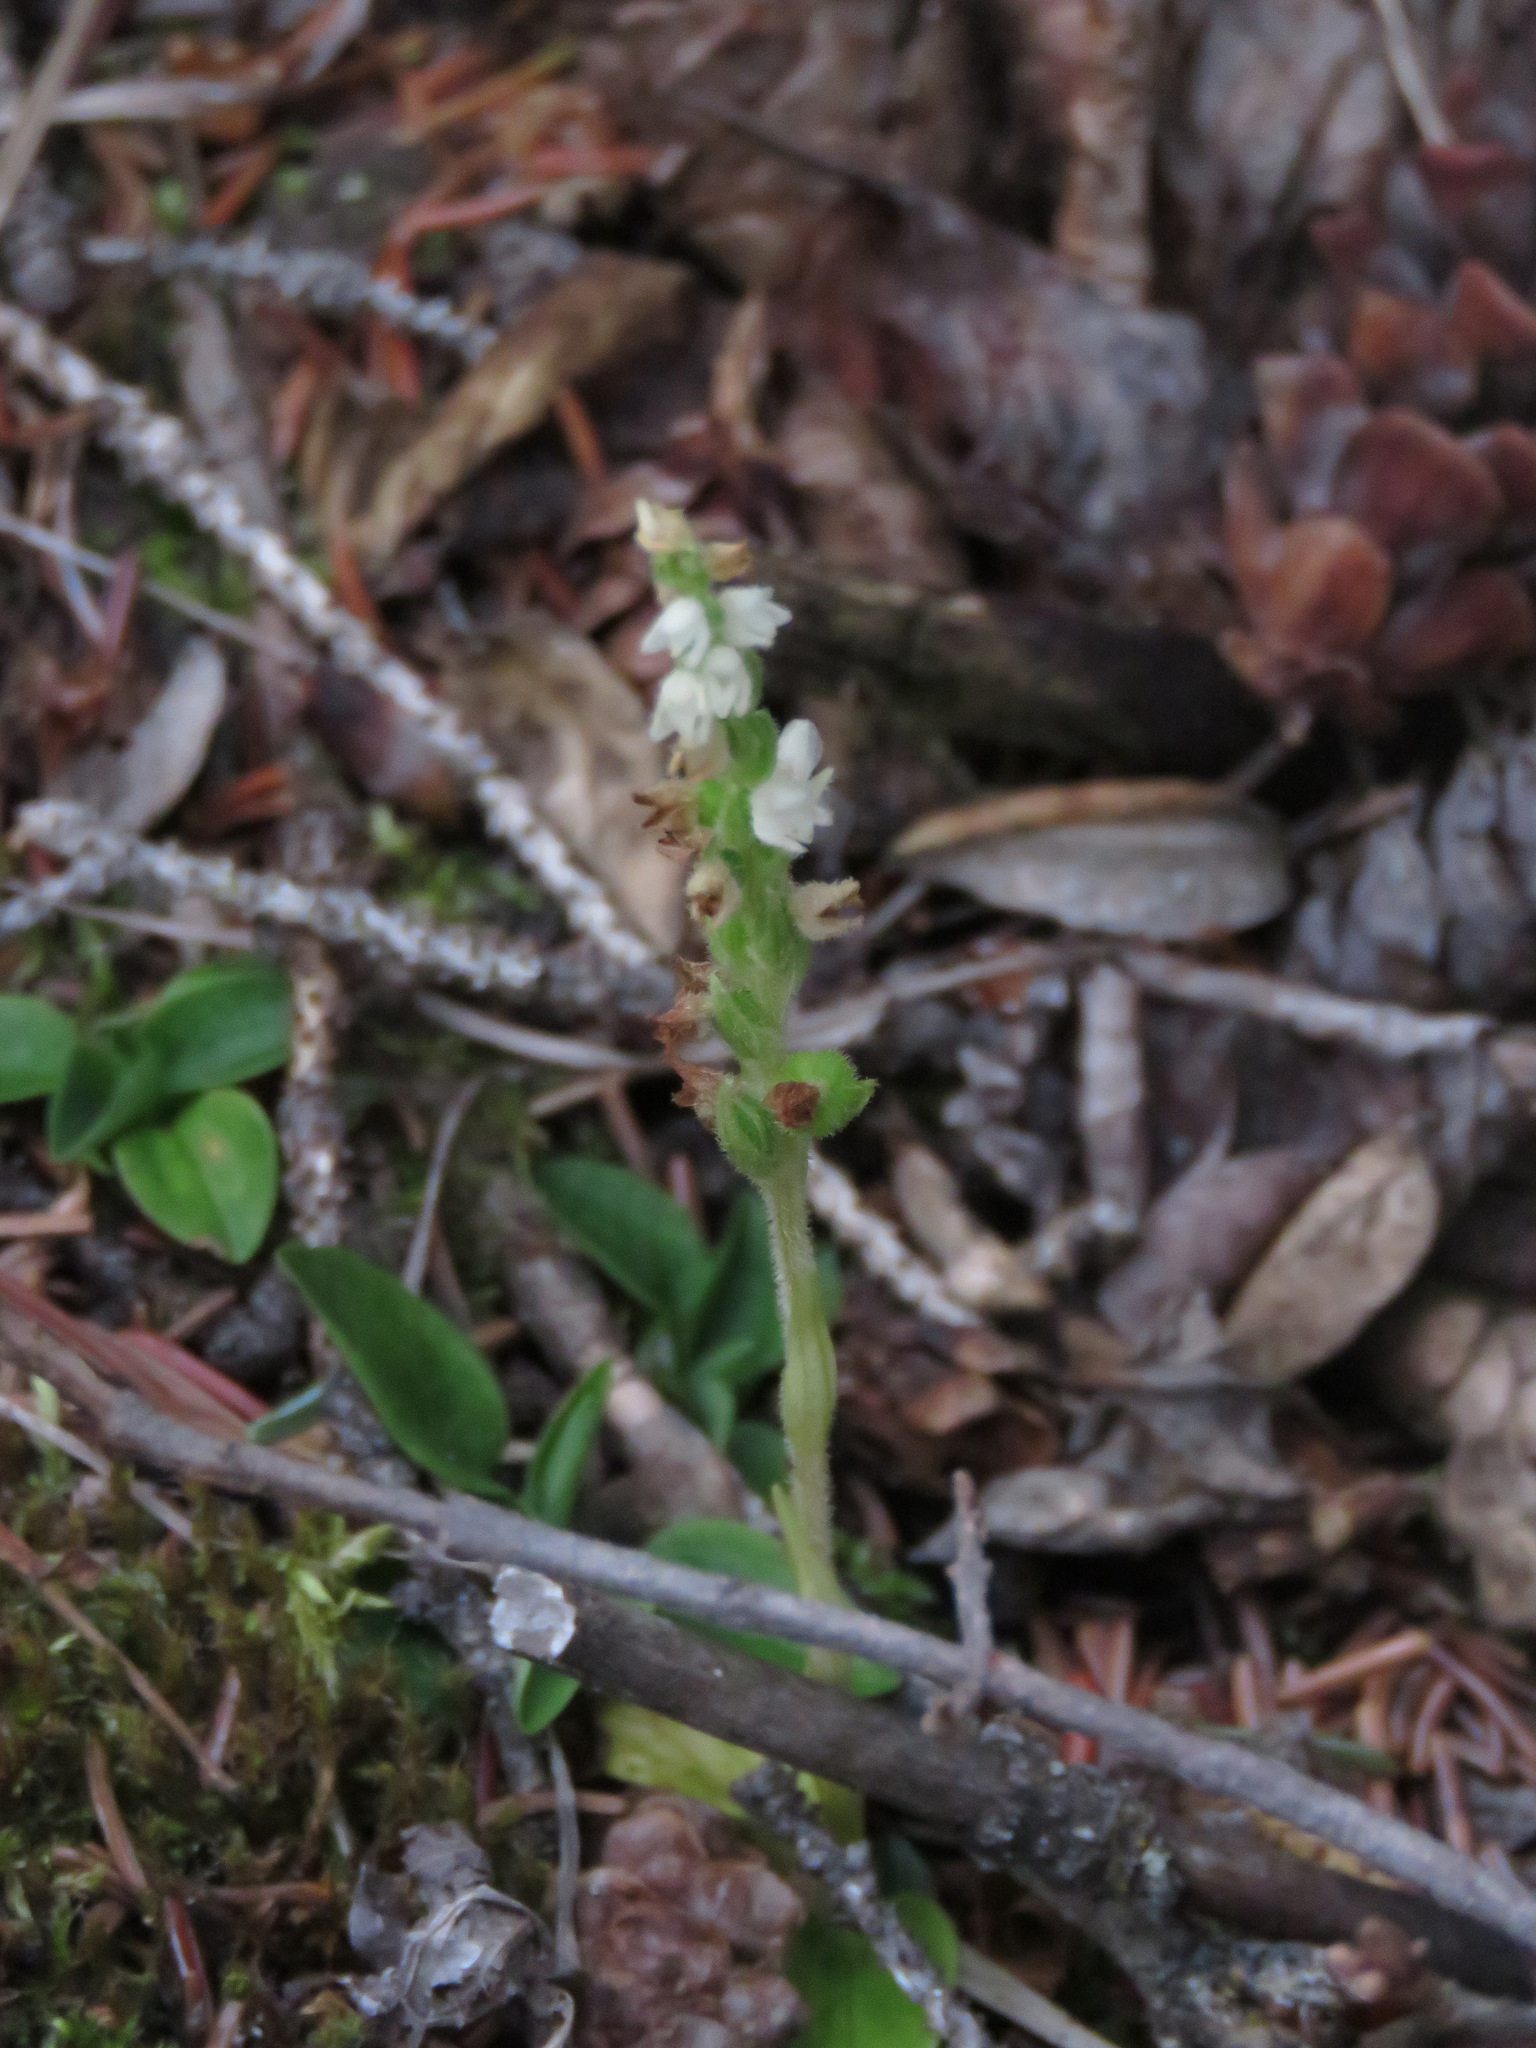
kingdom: Plantae
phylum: Tracheophyta
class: Liliopsida
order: Asparagales
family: Orchidaceae
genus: Goodyera
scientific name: Goodyera repens
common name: Creeping lady's-tresses
